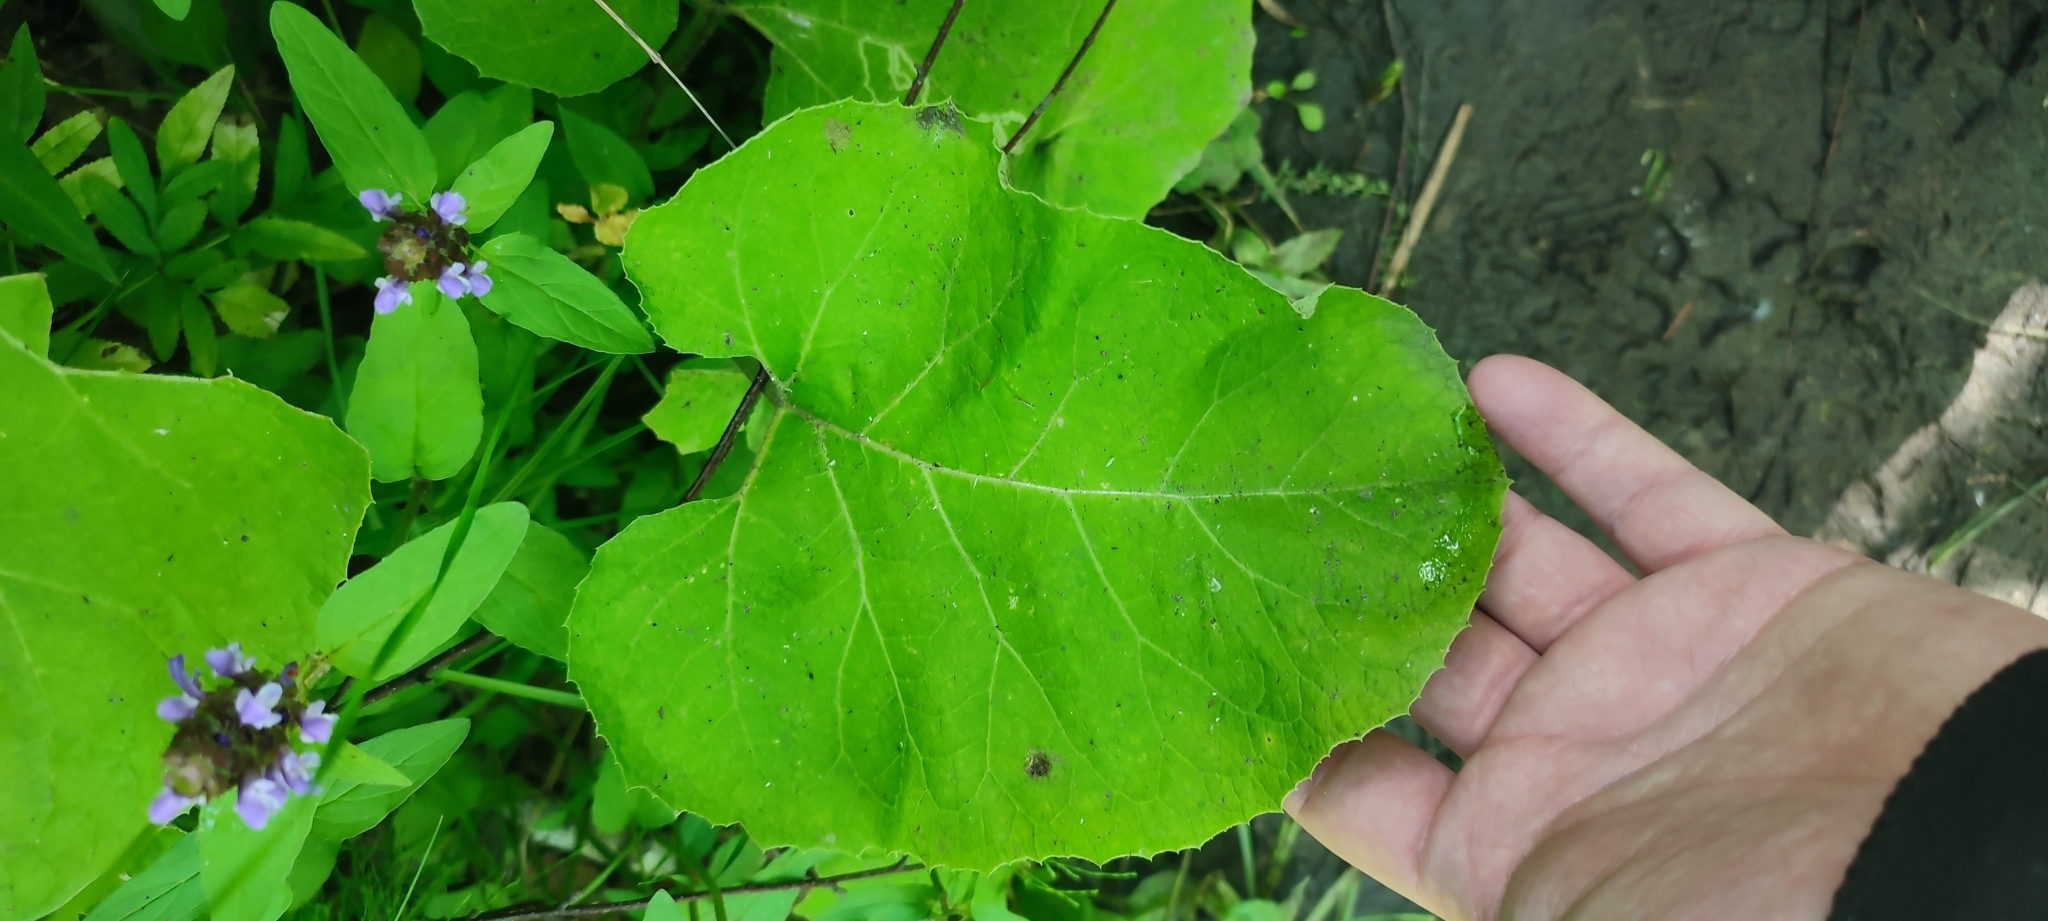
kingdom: Plantae
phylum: Tracheophyta
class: Magnoliopsida
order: Asterales
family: Asteraceae
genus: Arctium
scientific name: Arctium tomentosum
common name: Woolly burdock
